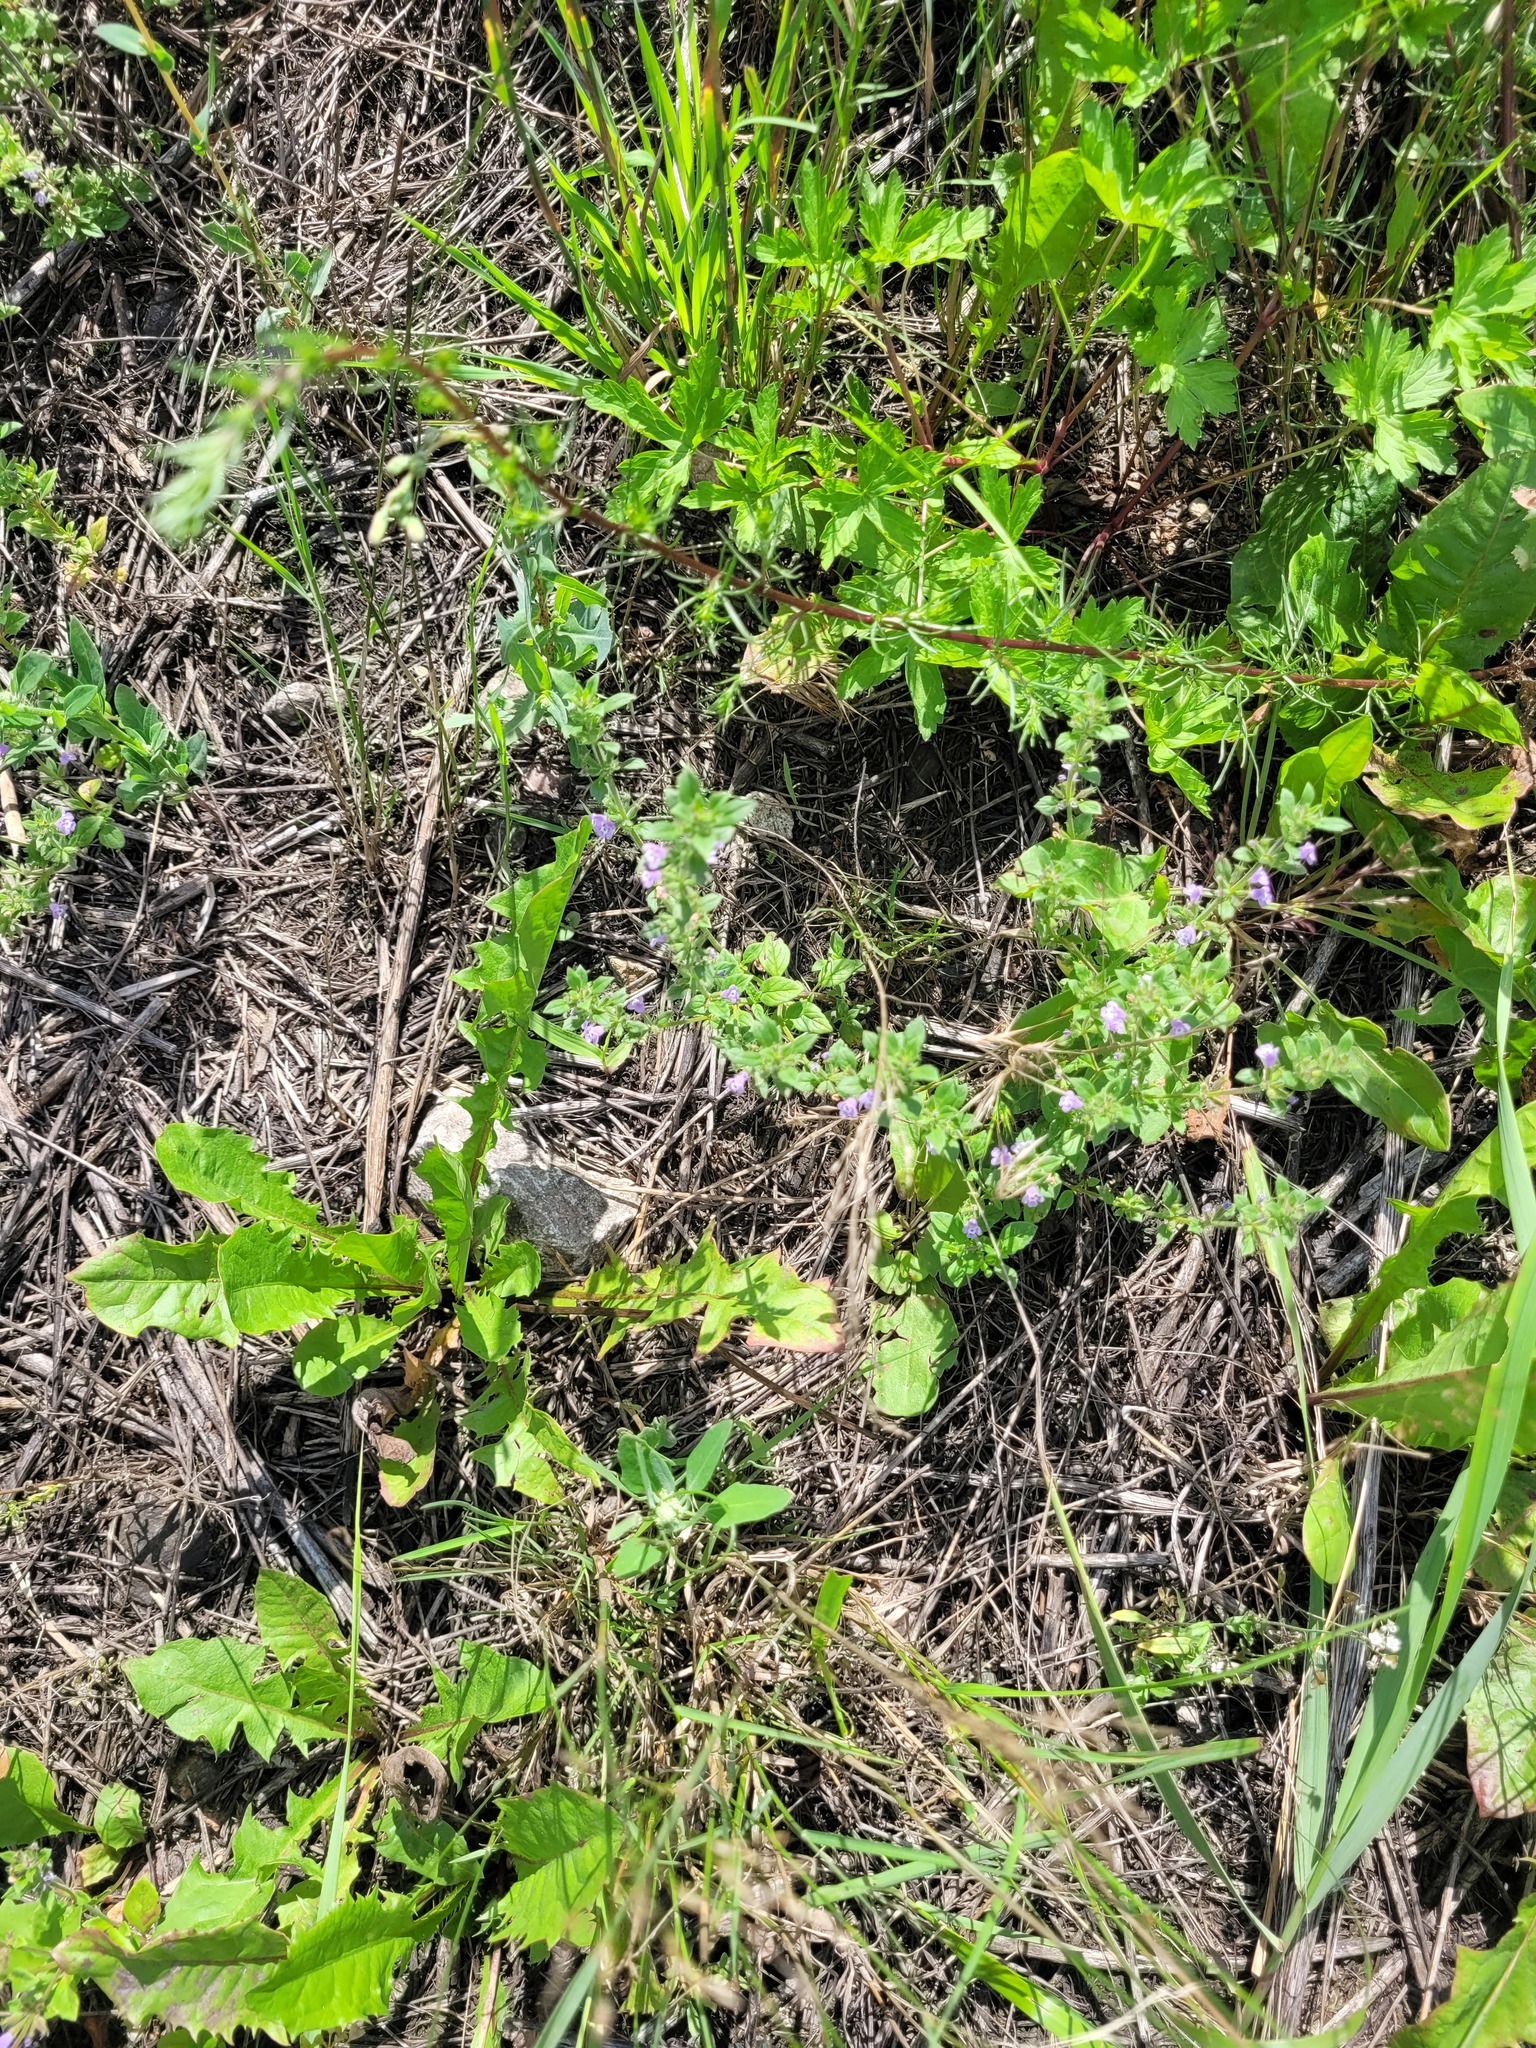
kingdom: Plantae
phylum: Tracheophyta
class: Magnoliopsida
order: Lamiales
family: Lamiaceae
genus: Clinopodium
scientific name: Clinopodium acinos
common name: Basil thyme
